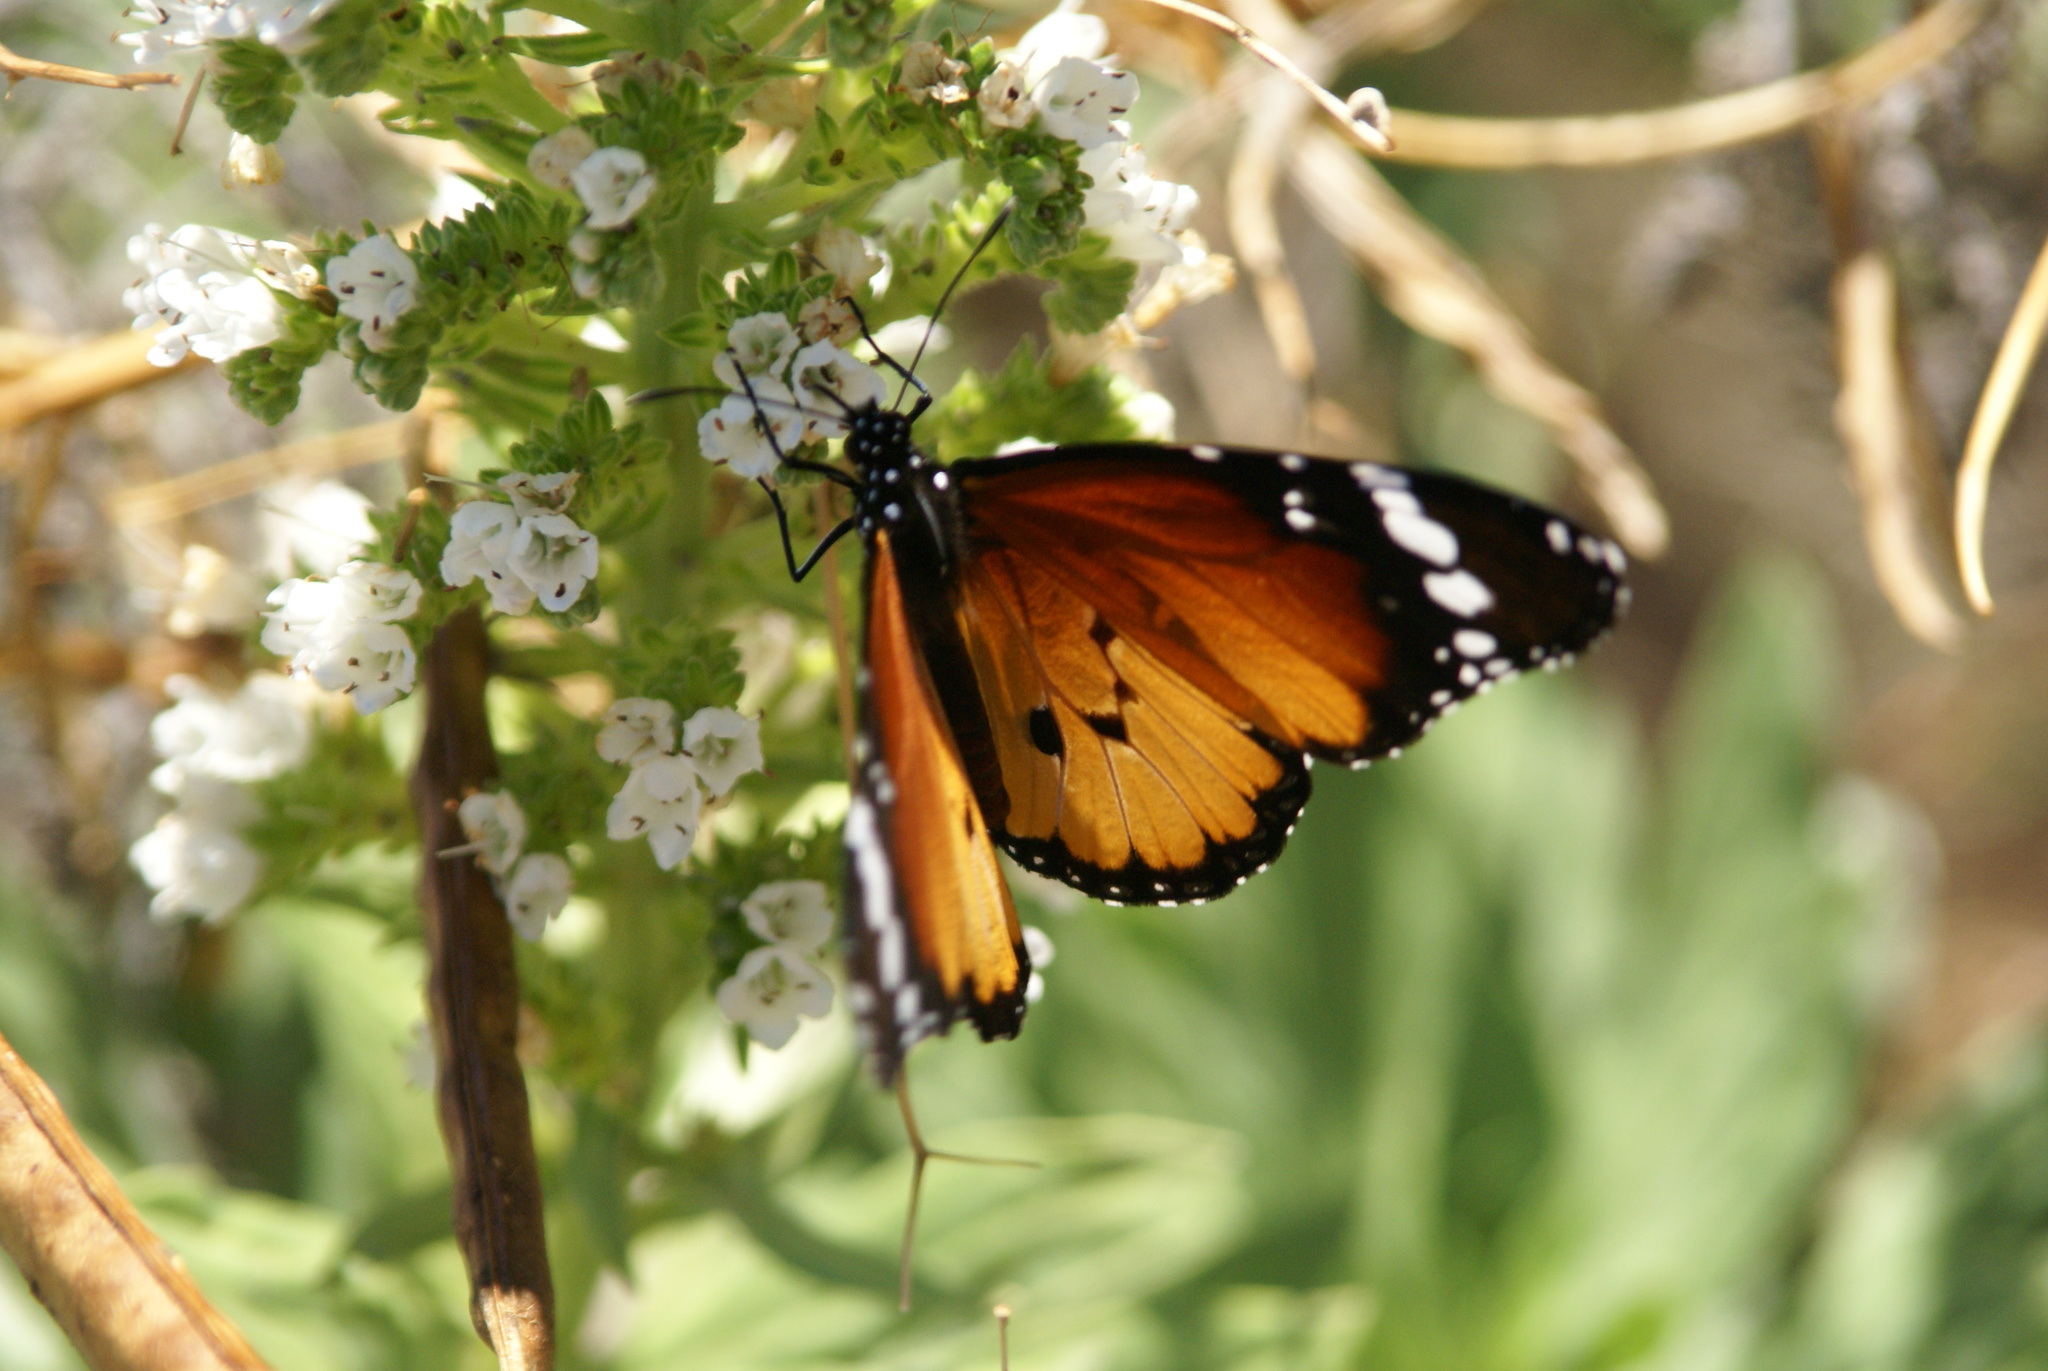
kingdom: Animalia
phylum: Arthropoda
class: Insecta
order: Lepidoptera
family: Nymphalidae
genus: Danaus
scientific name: Danaus chrysippus
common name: Plain tiger
